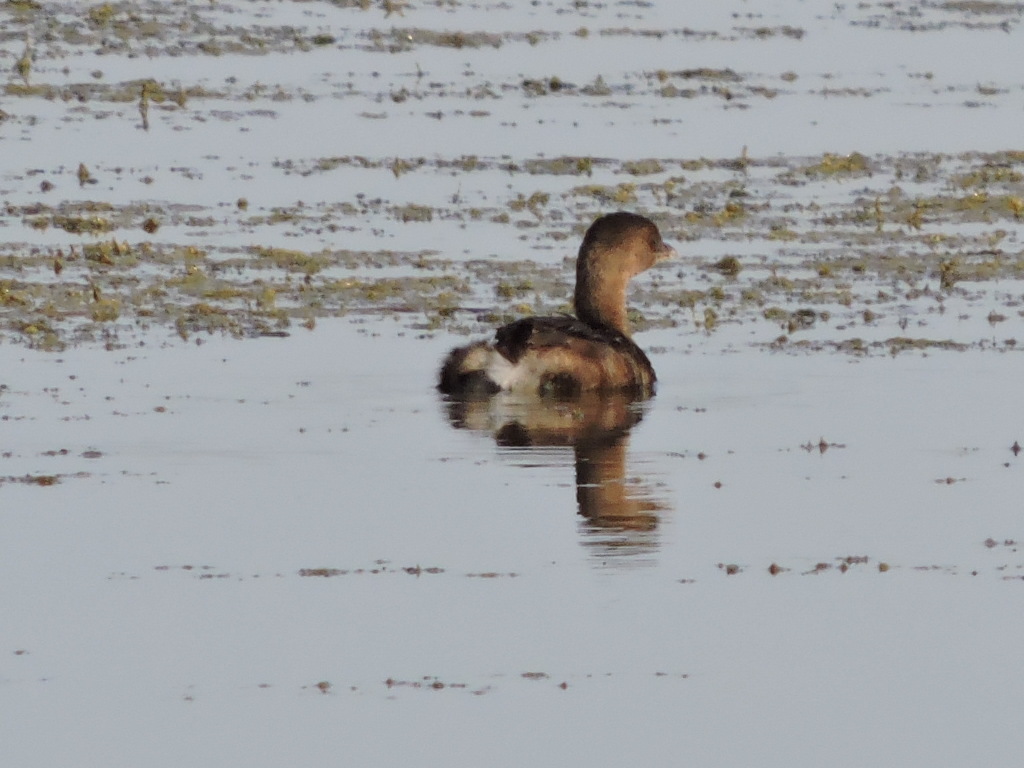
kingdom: Animalia
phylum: Chordata
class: Aves
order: Podicipediformes
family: Podicipedidae
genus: Podilymbus
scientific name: Podilymbus podiceps
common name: Pied-billed grebe
